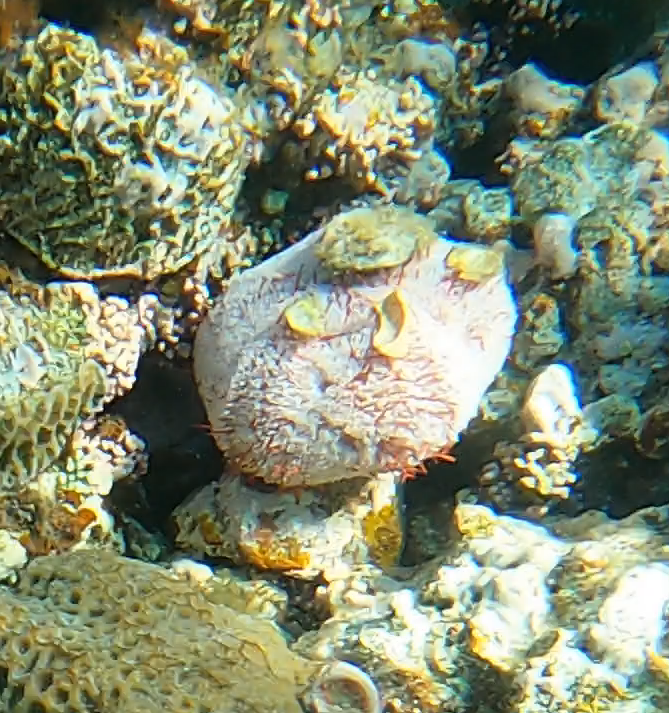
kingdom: Animalia
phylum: Echinodermata
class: Echinoidea
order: Camarodonta
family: Toxopneustidae
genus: Tripneustes
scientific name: Tripneustes gratilla
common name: Bischofsmützenseeigel
